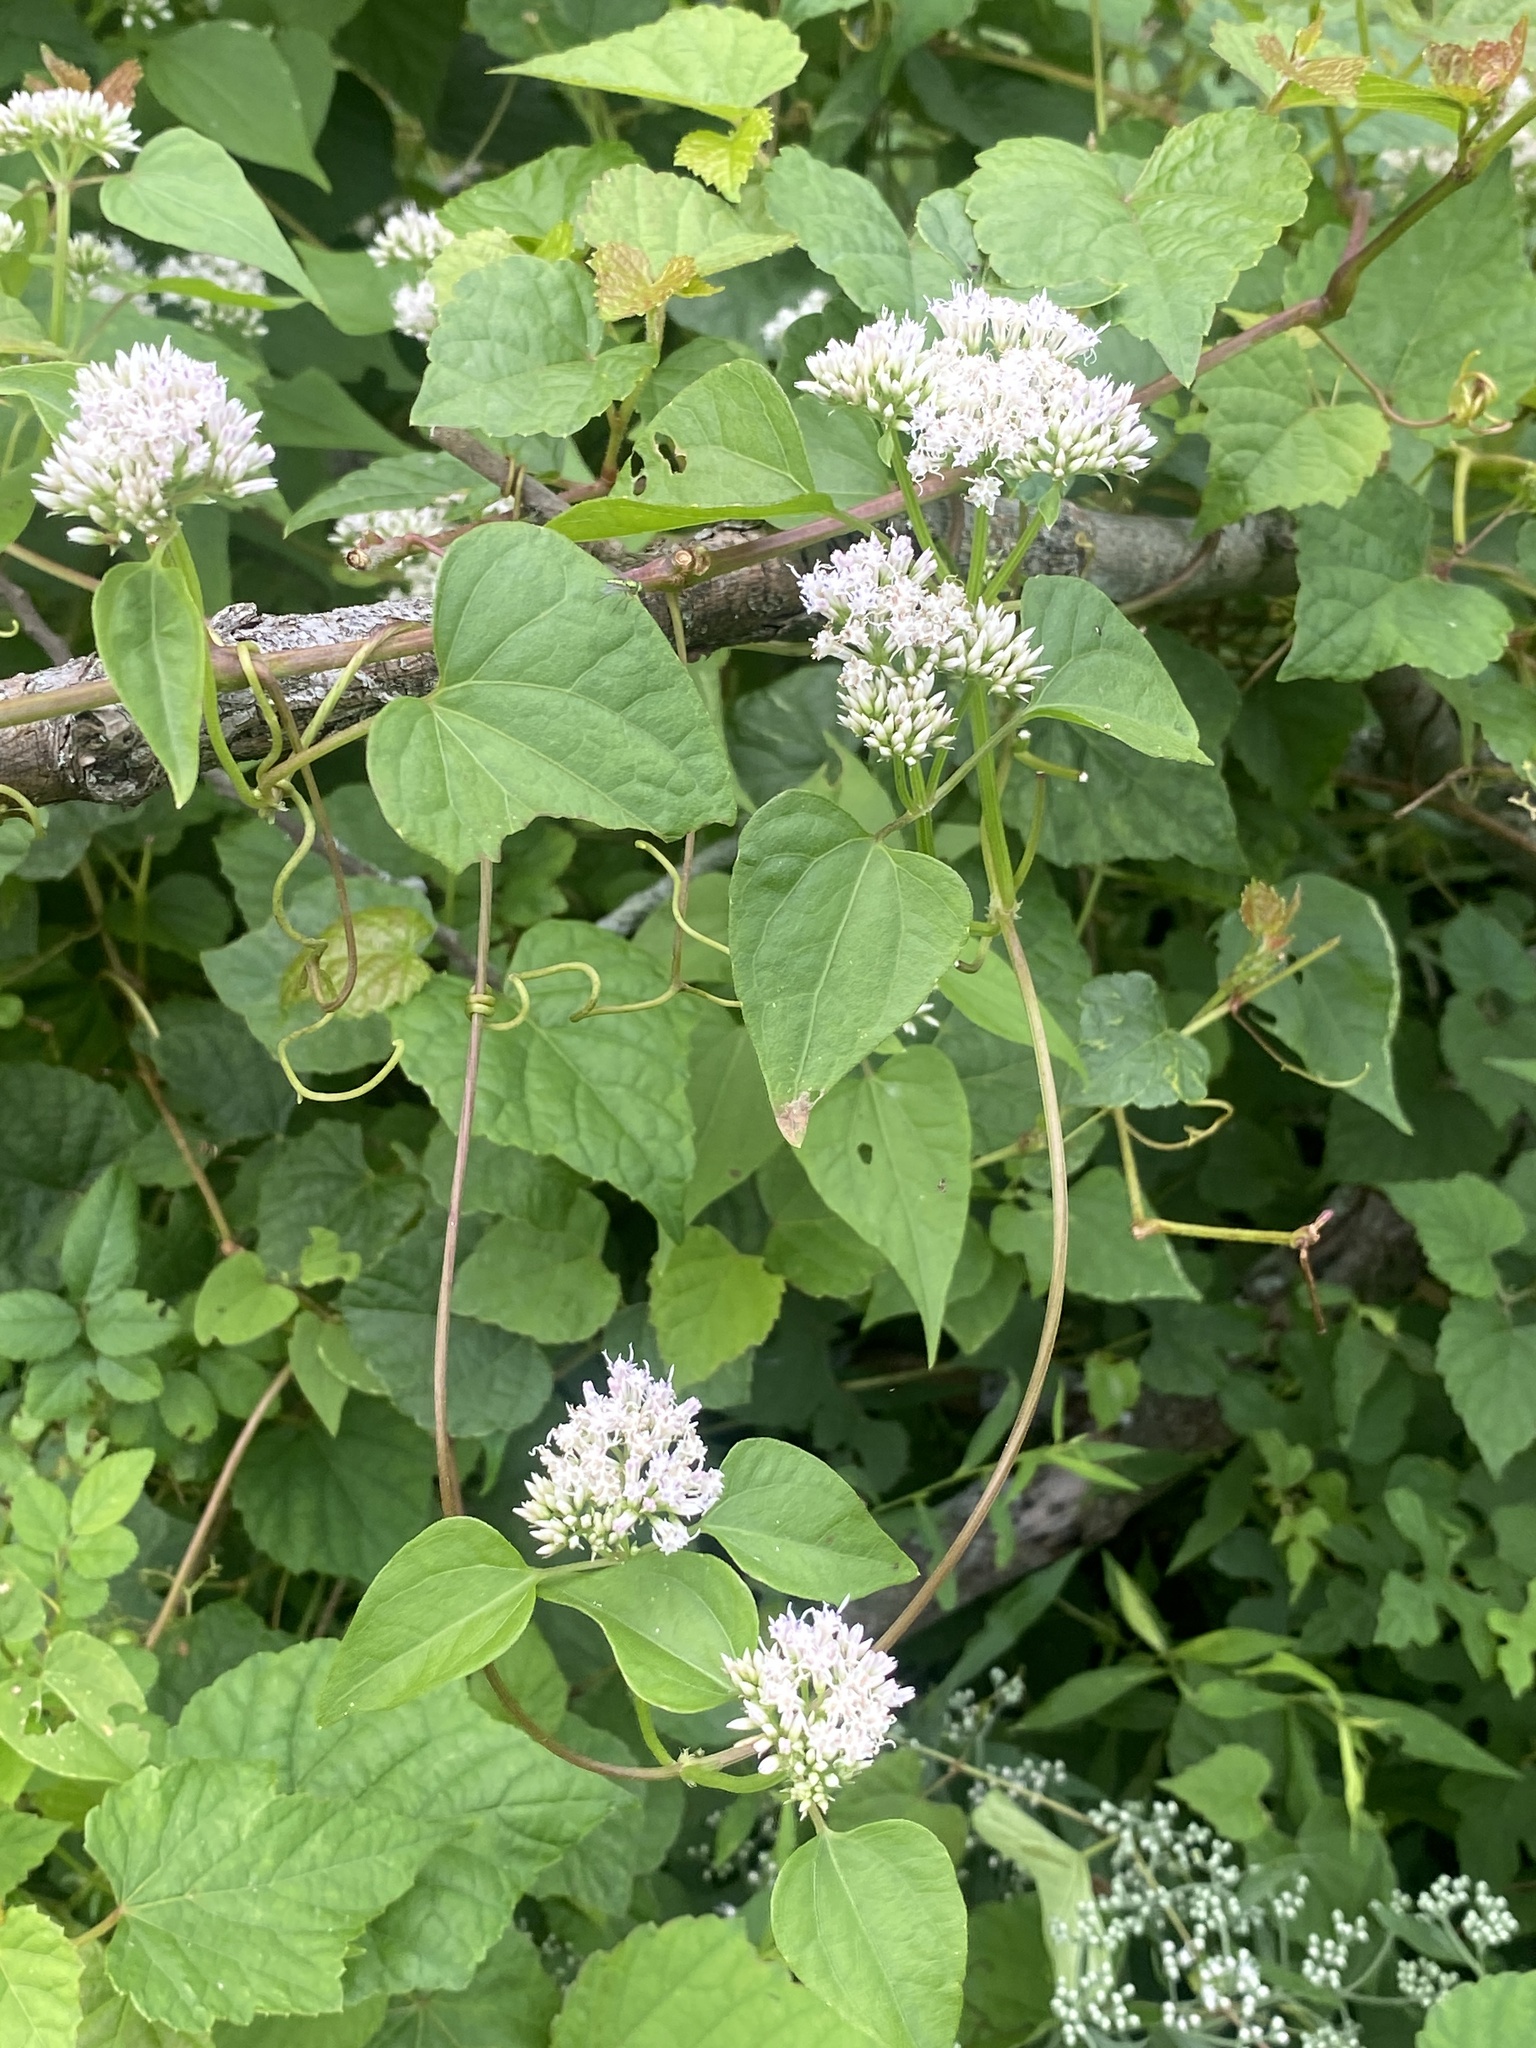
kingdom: Plantae
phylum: Tracheophyta
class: Magnoliopsida
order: Asterales
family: Asteraceae
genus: Mikania
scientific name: Mikania scandens
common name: Climbing hempvine
